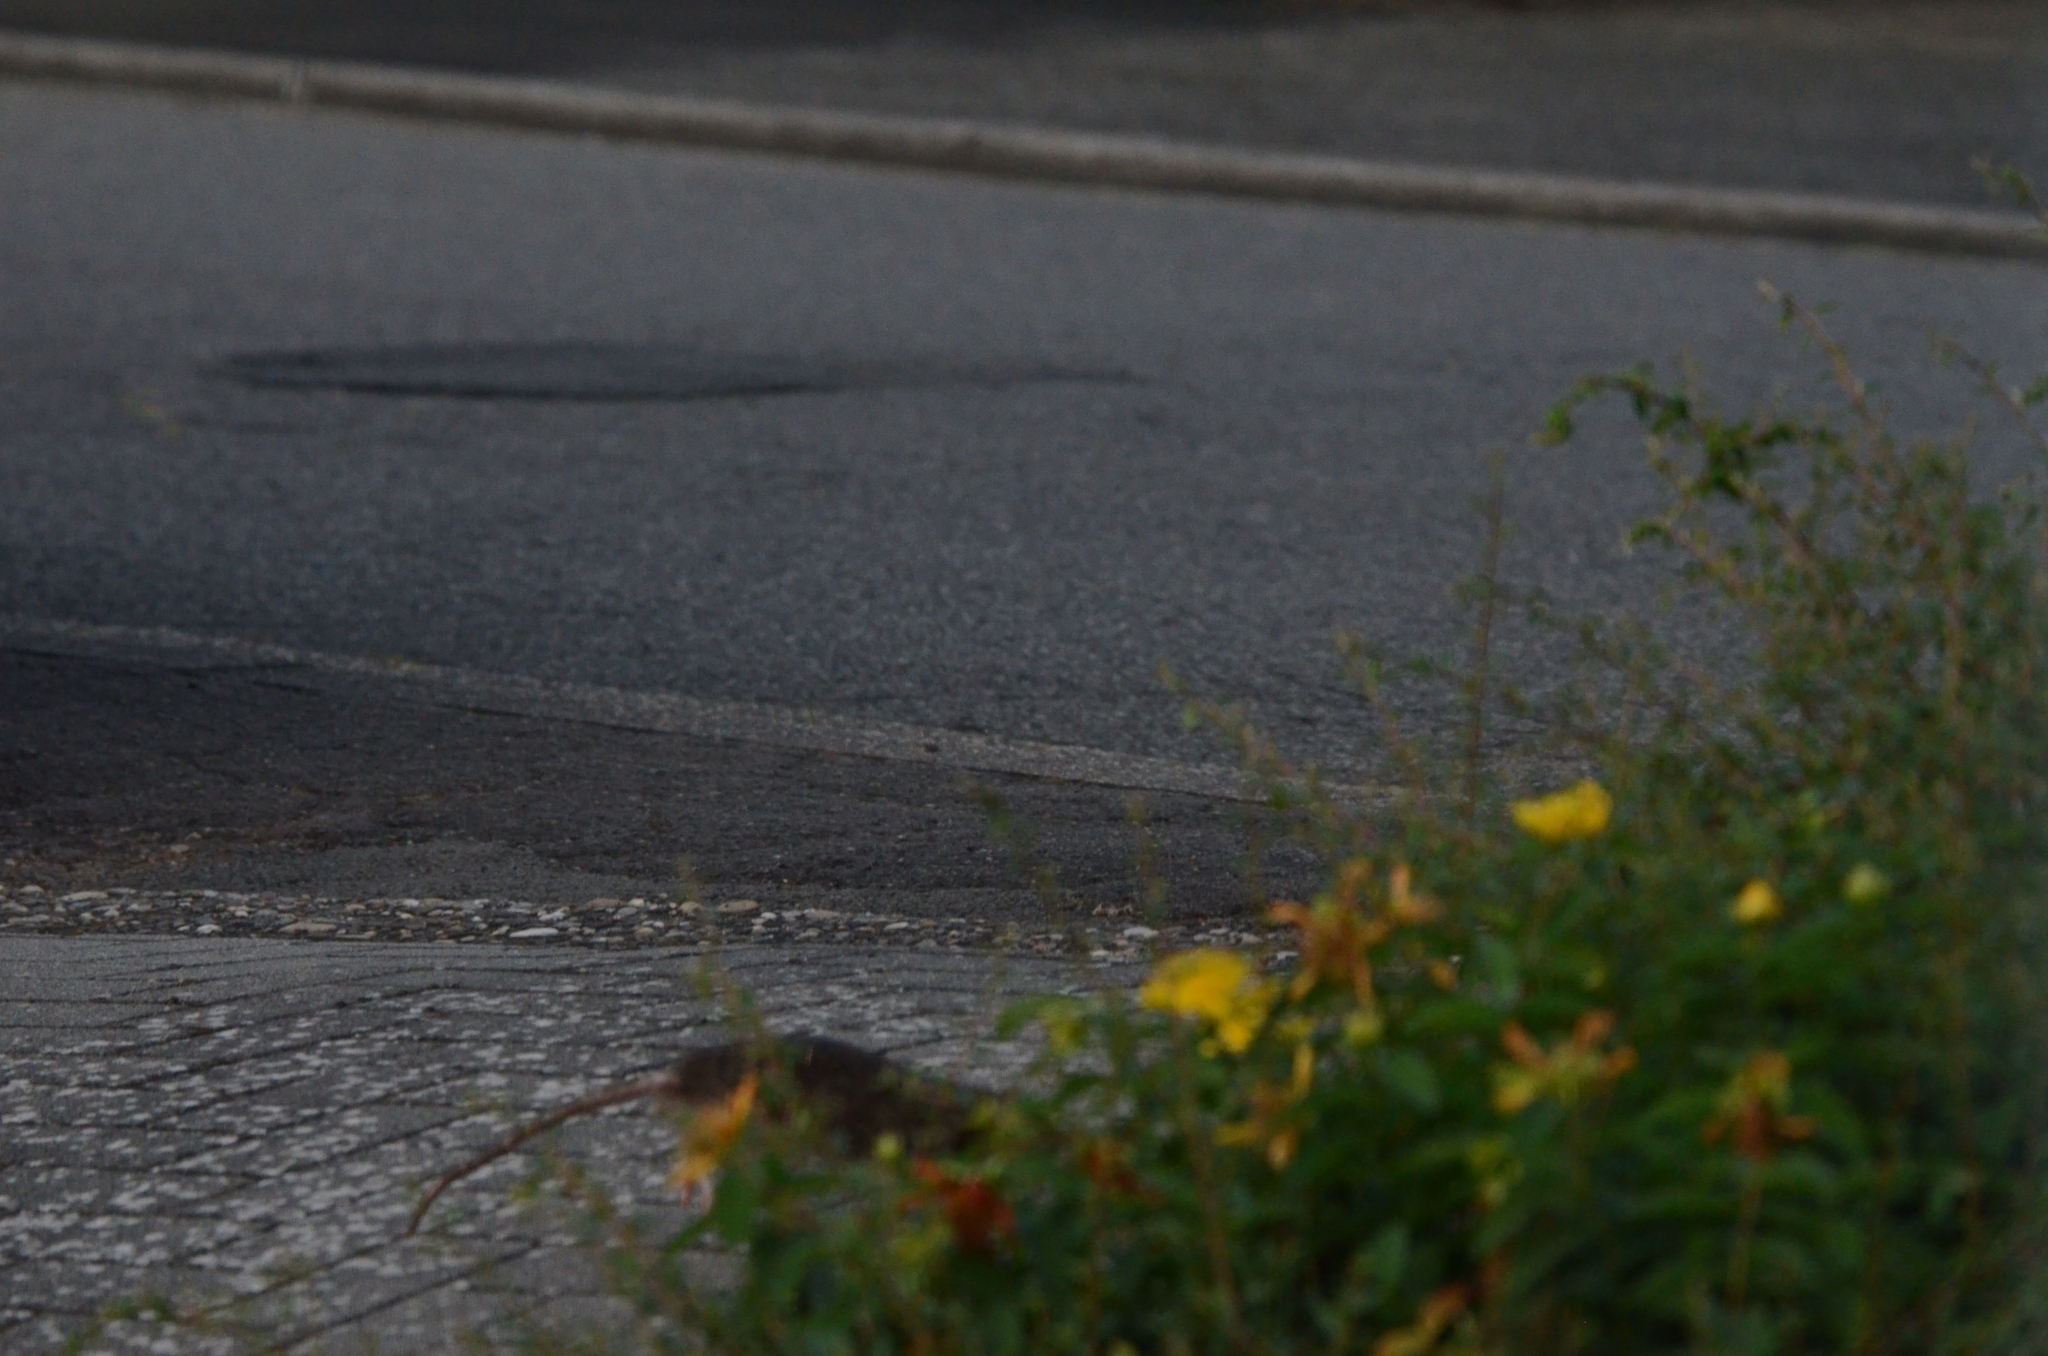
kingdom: Animalia
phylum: Chordata
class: Mammalia
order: Rodentia
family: Muridae
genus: Rattus
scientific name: Rattus norvegicus
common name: Brown rat
